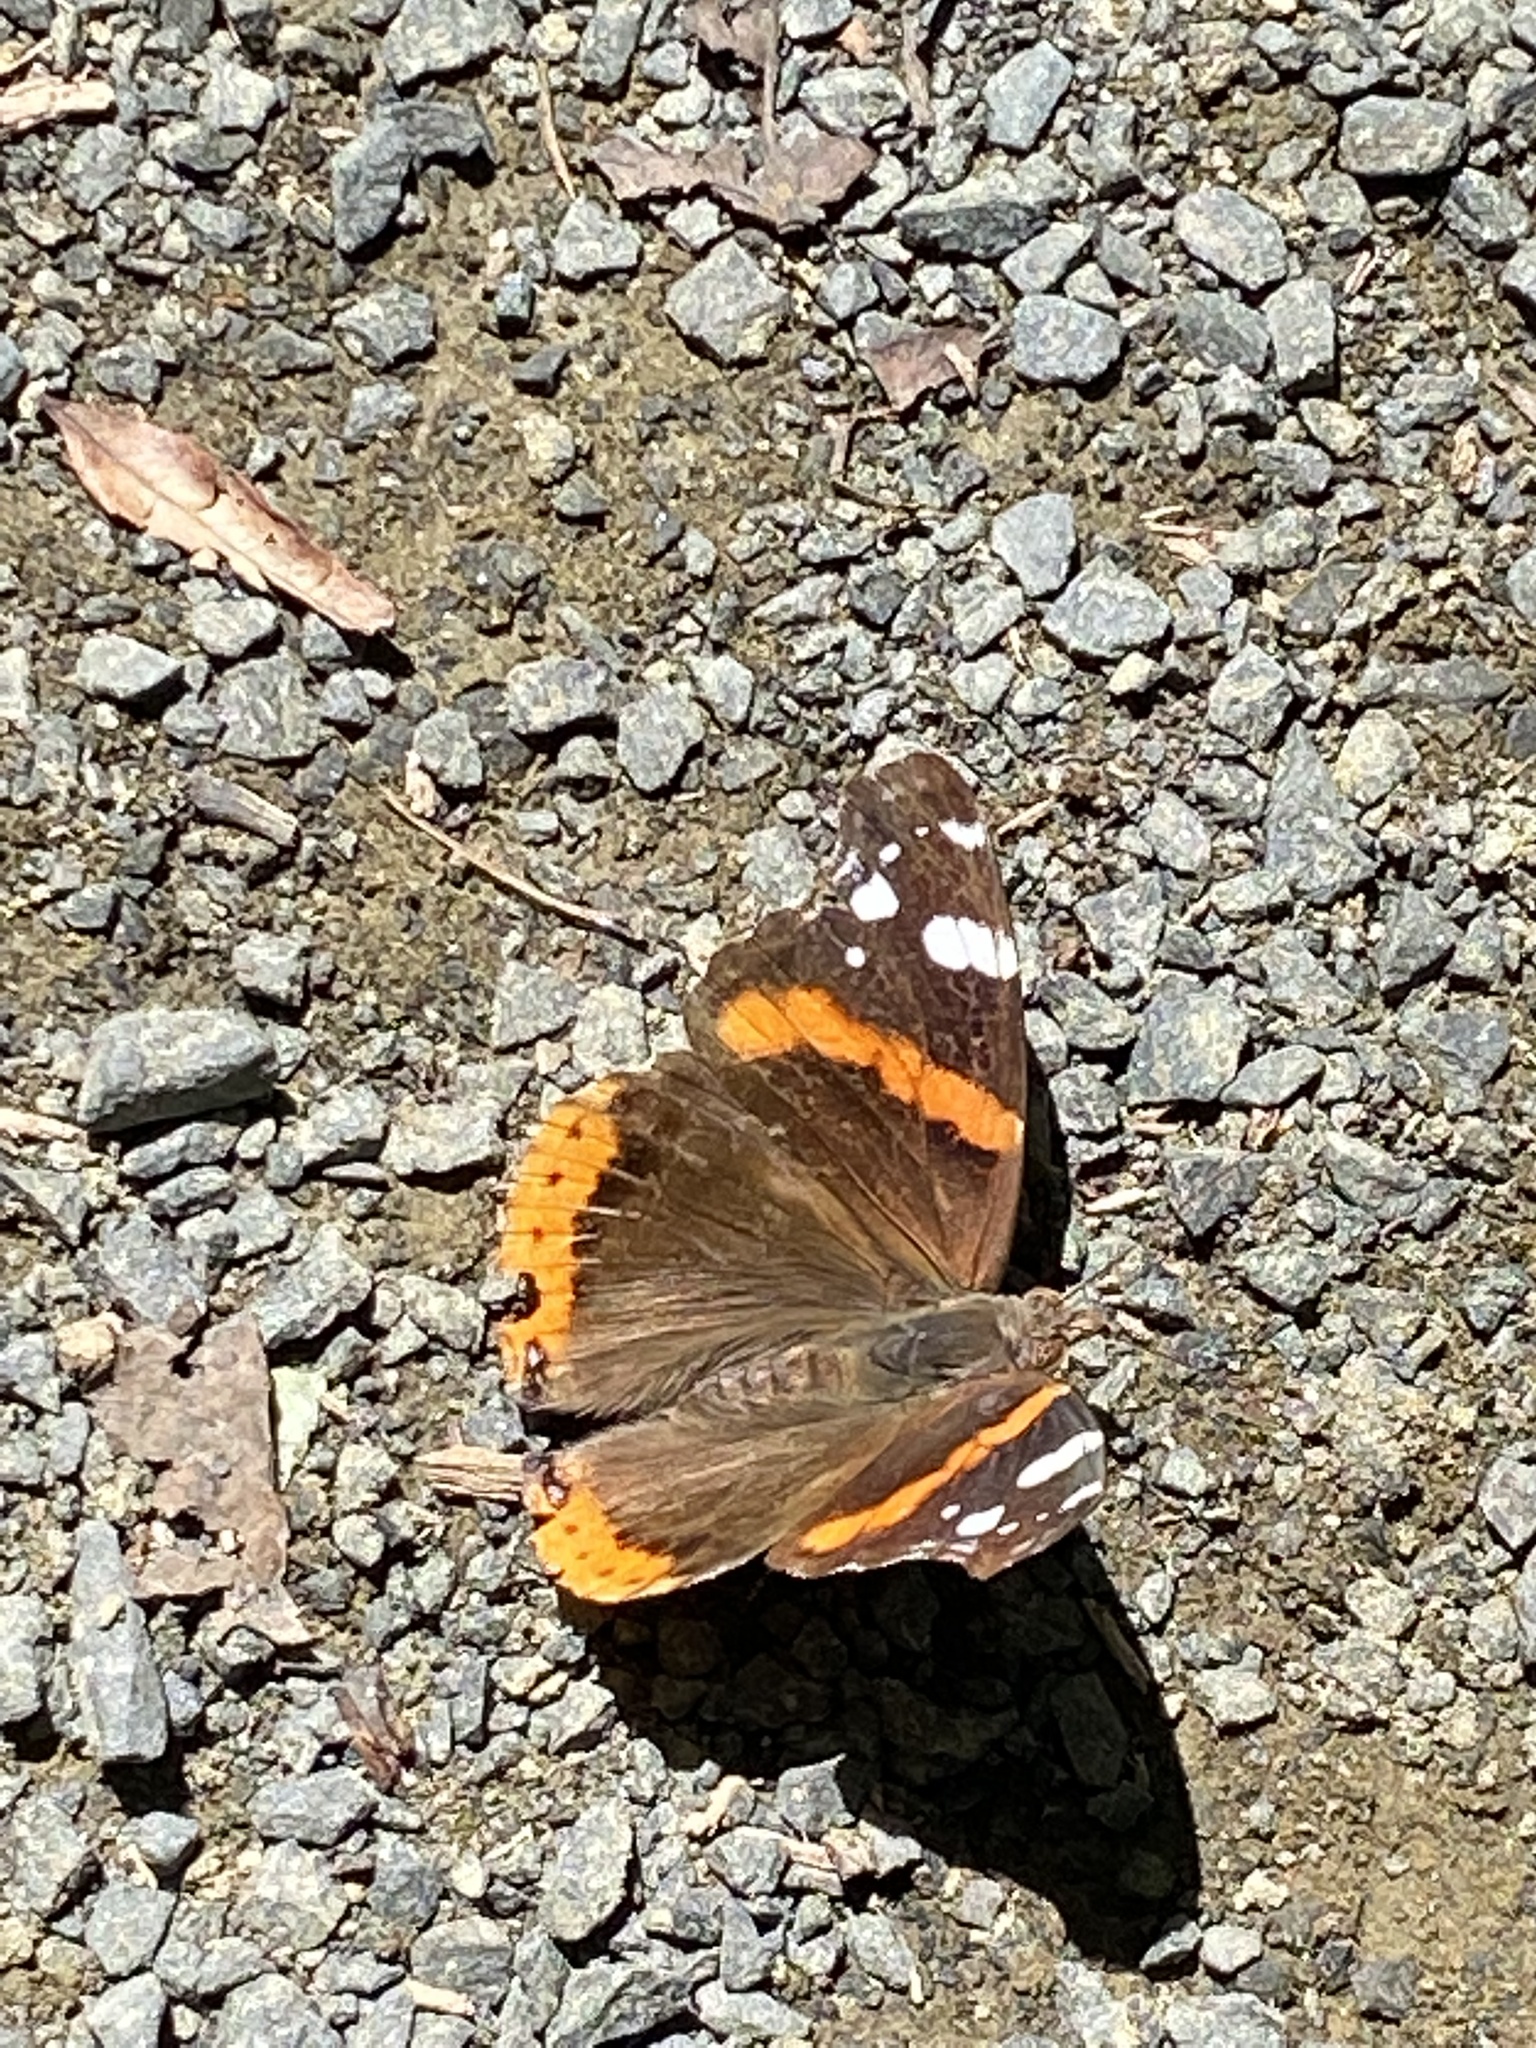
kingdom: Animalia
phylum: Arthropoda
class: Insecta
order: Lepidoptera
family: Nymphalidae
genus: Vanessa
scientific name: Vanessa atalanta
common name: Red admiral
